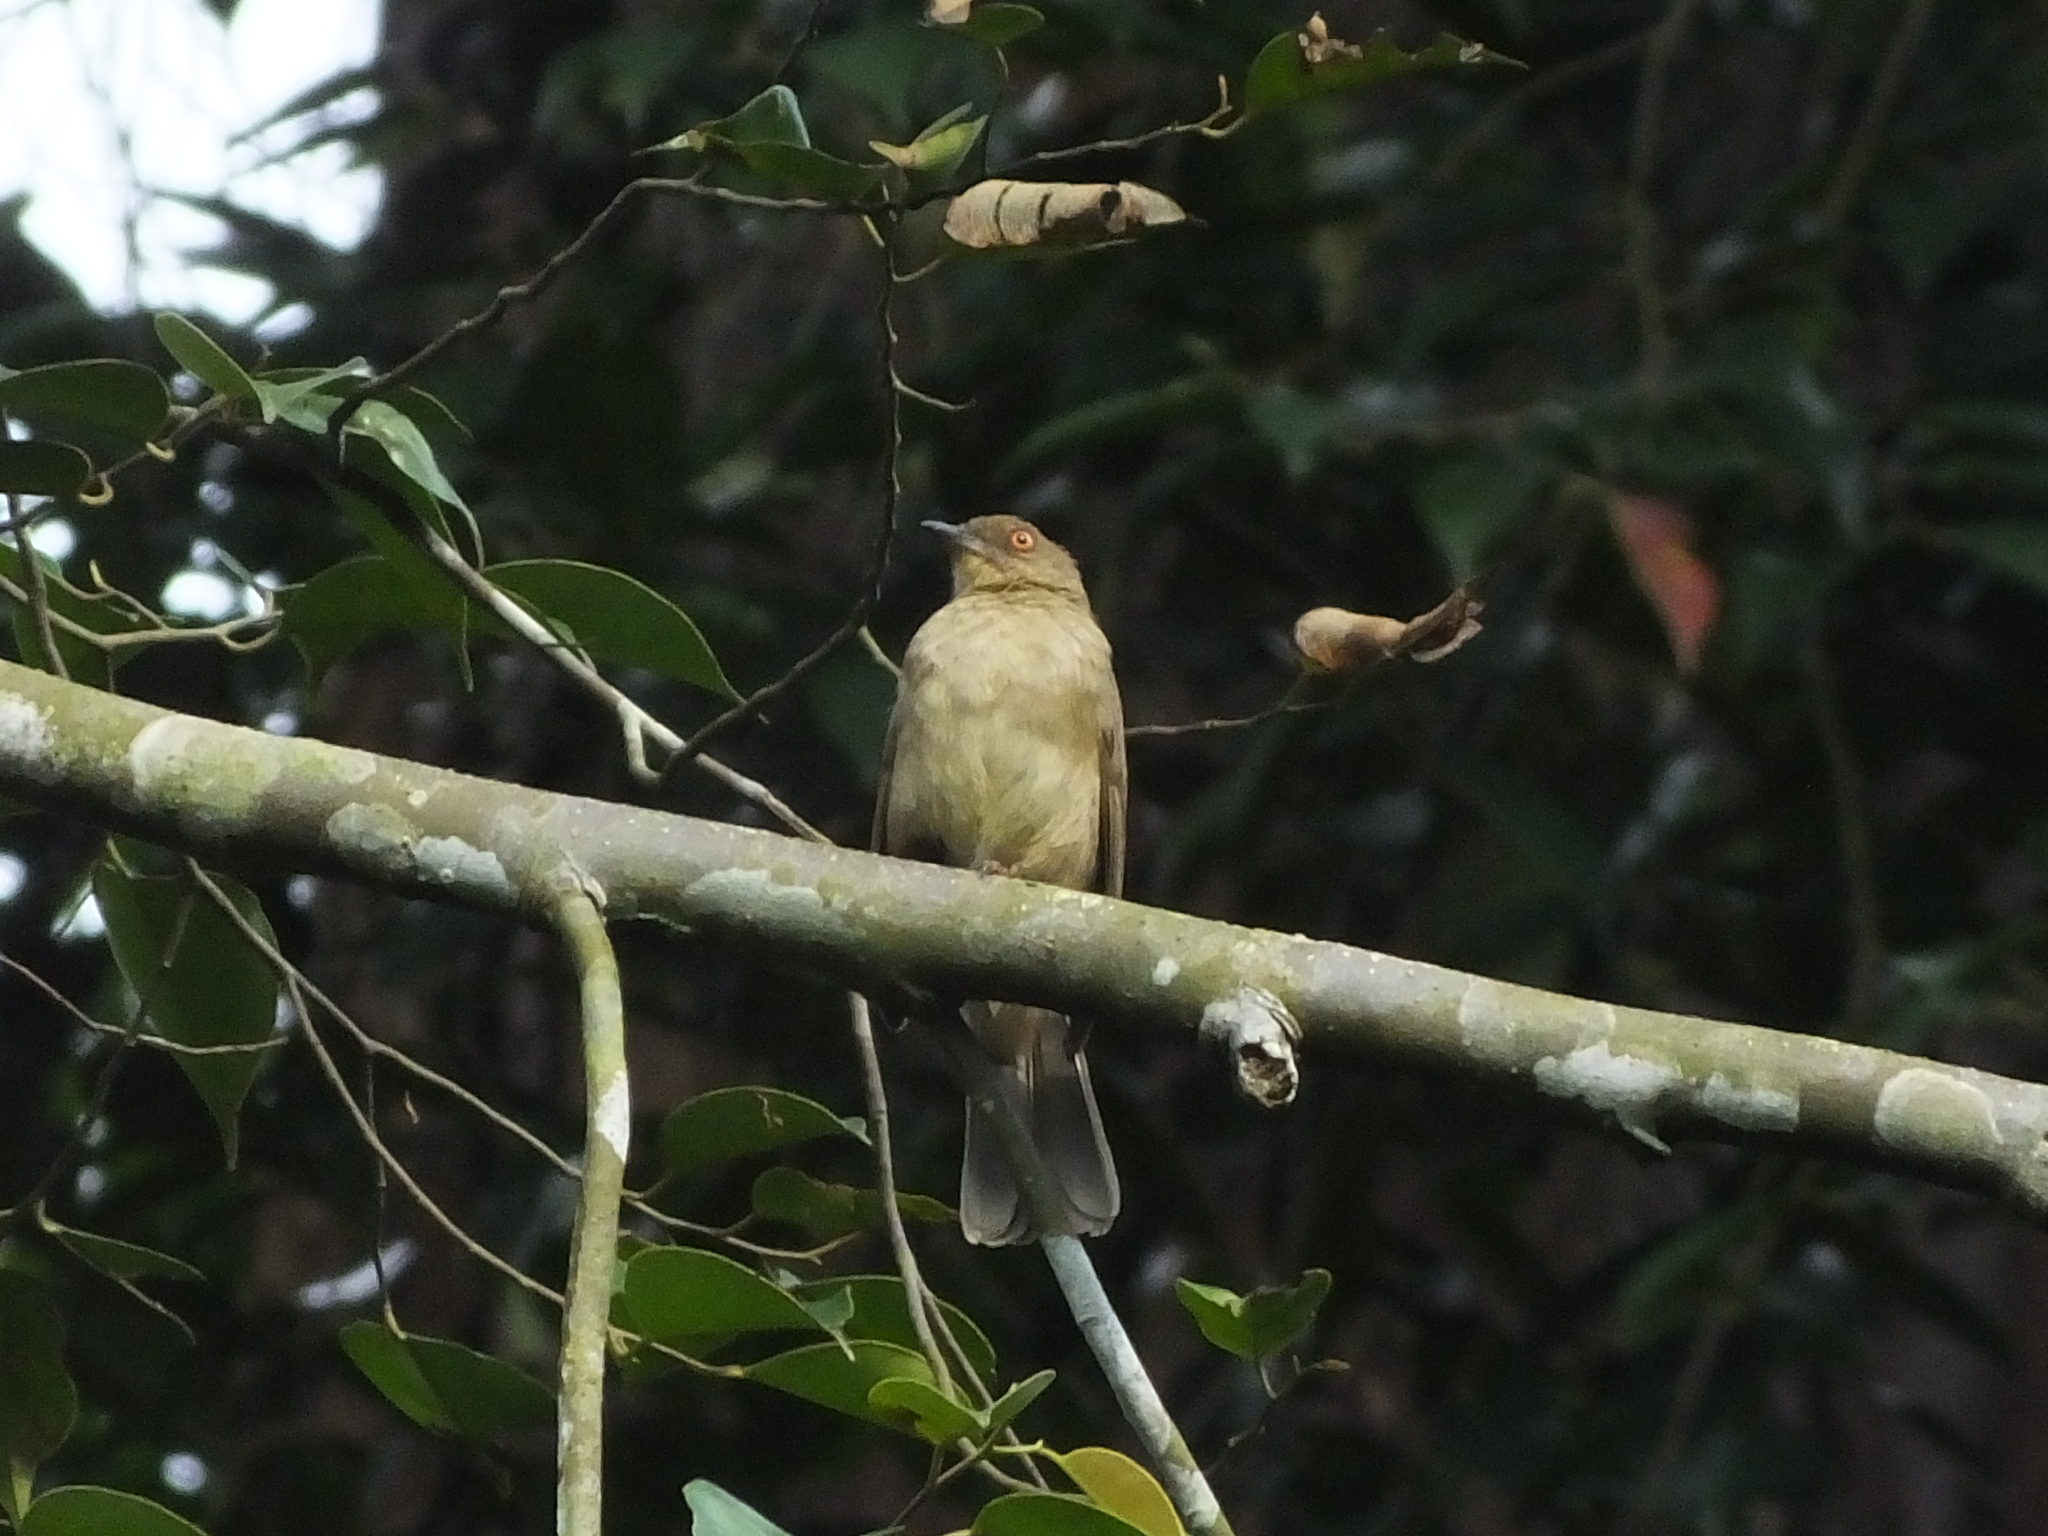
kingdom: Animalia
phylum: Chordata
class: Aves
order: Passeriformes
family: Pycnonotidae
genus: Pycnonotus
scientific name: Pycnonotus brunneus
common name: Asian red-eyed bulbul
